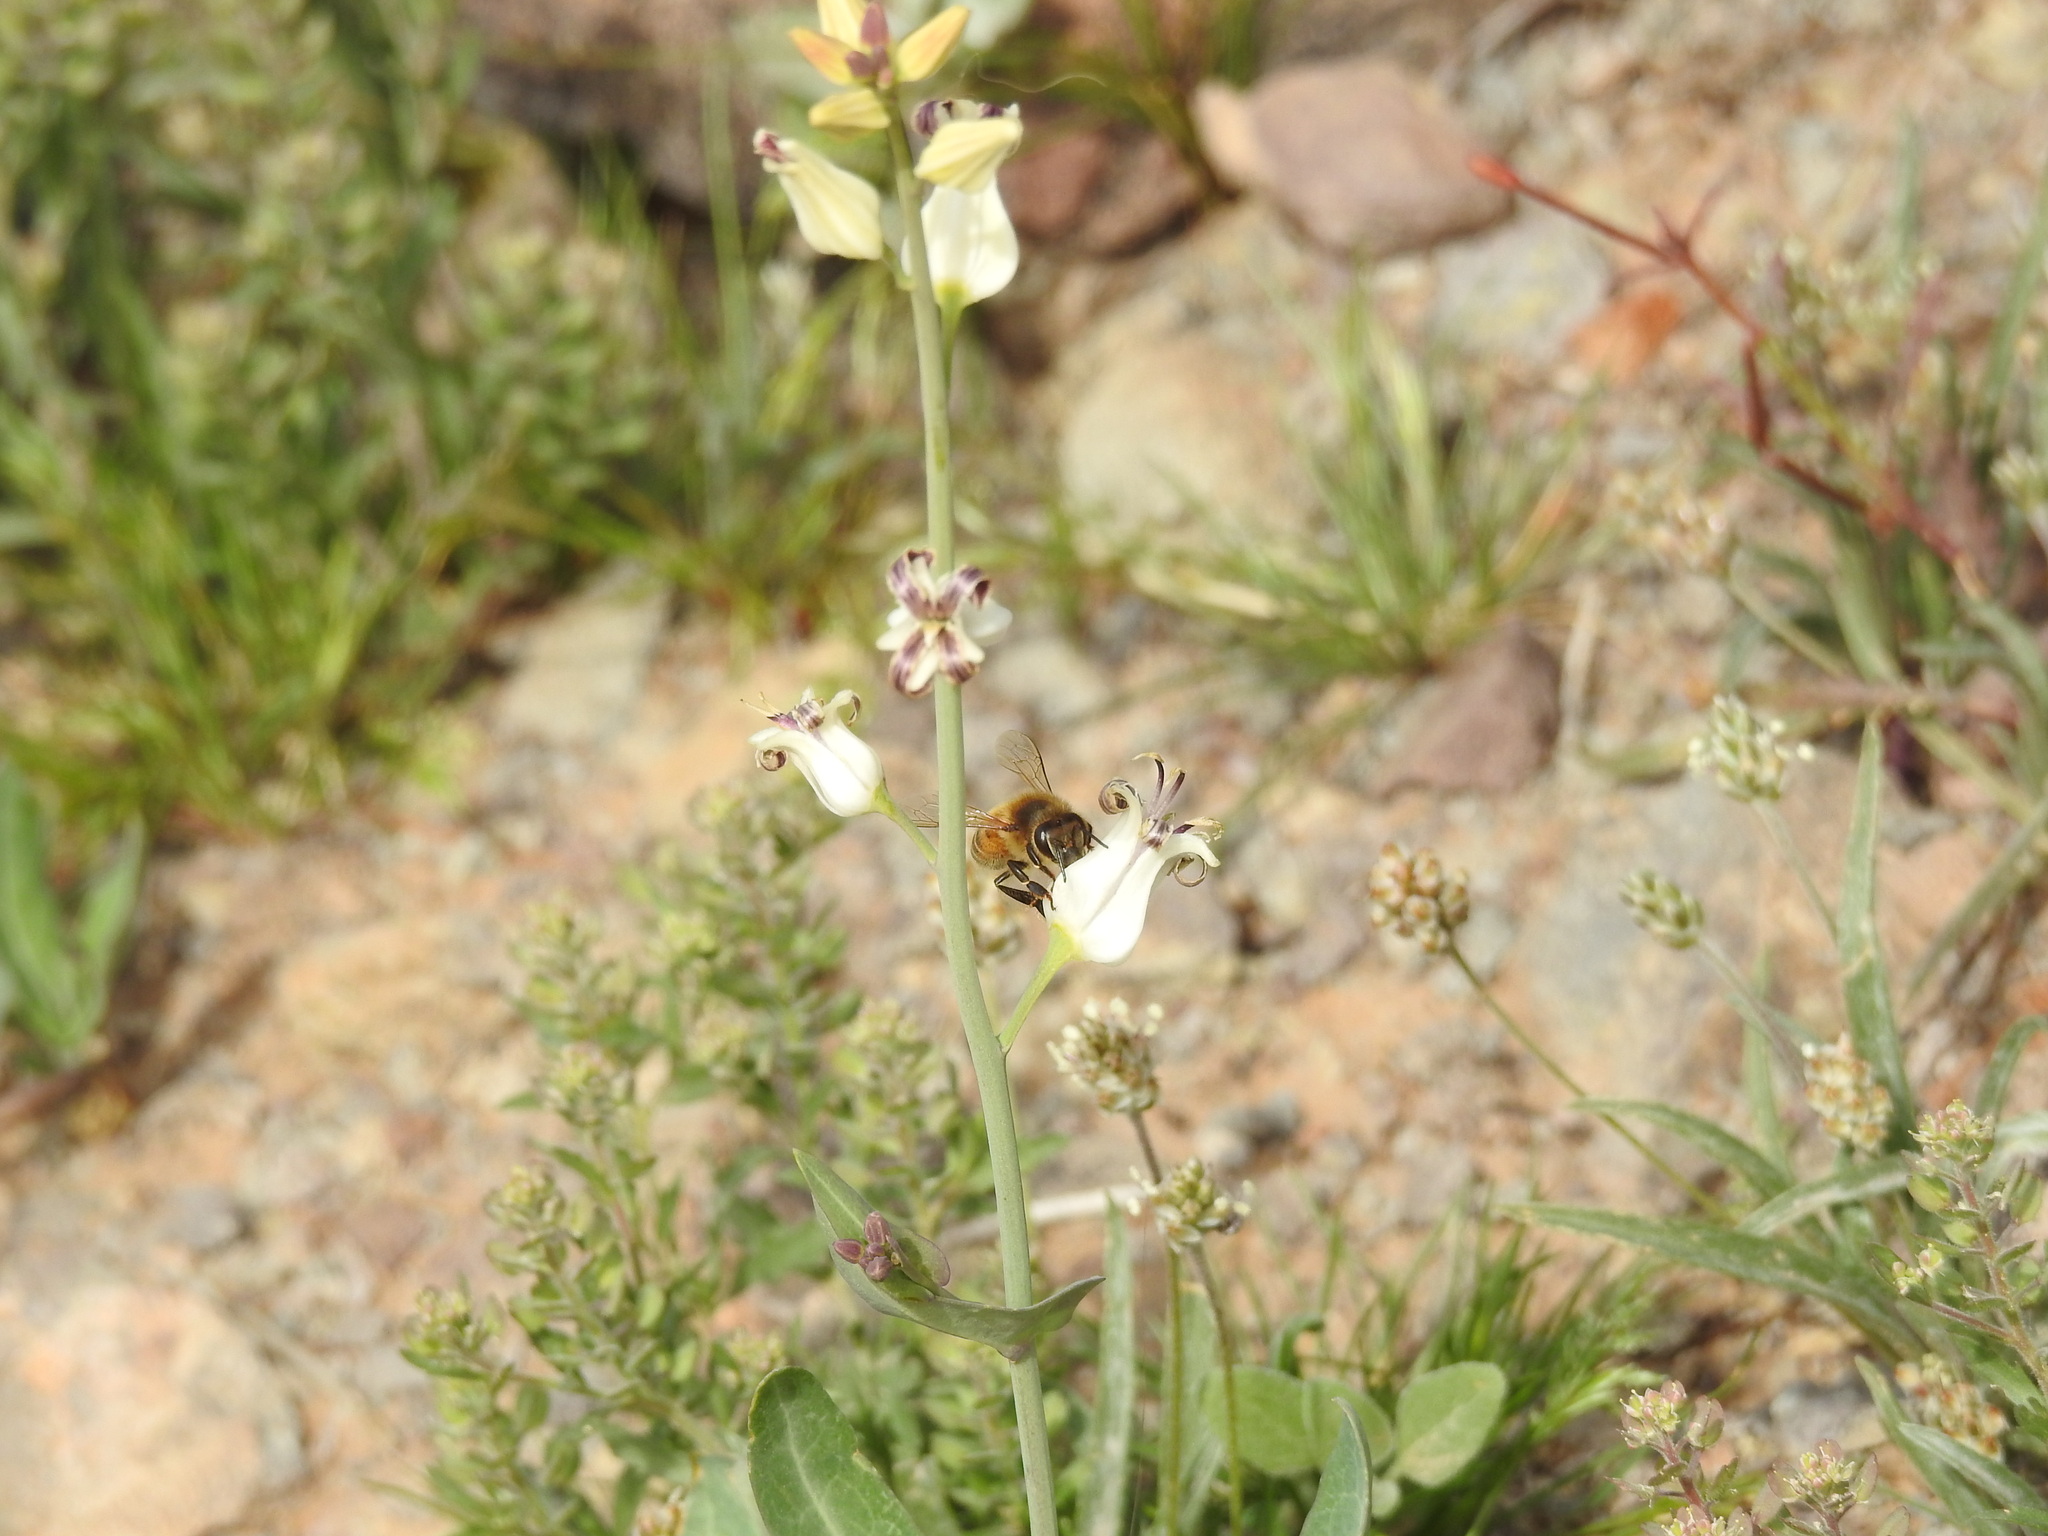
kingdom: Animalia
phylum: Arthropoda
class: Insecta
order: Hymenoptera
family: Apidae
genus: Apis
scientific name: Apis mellifera
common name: Honey bee
